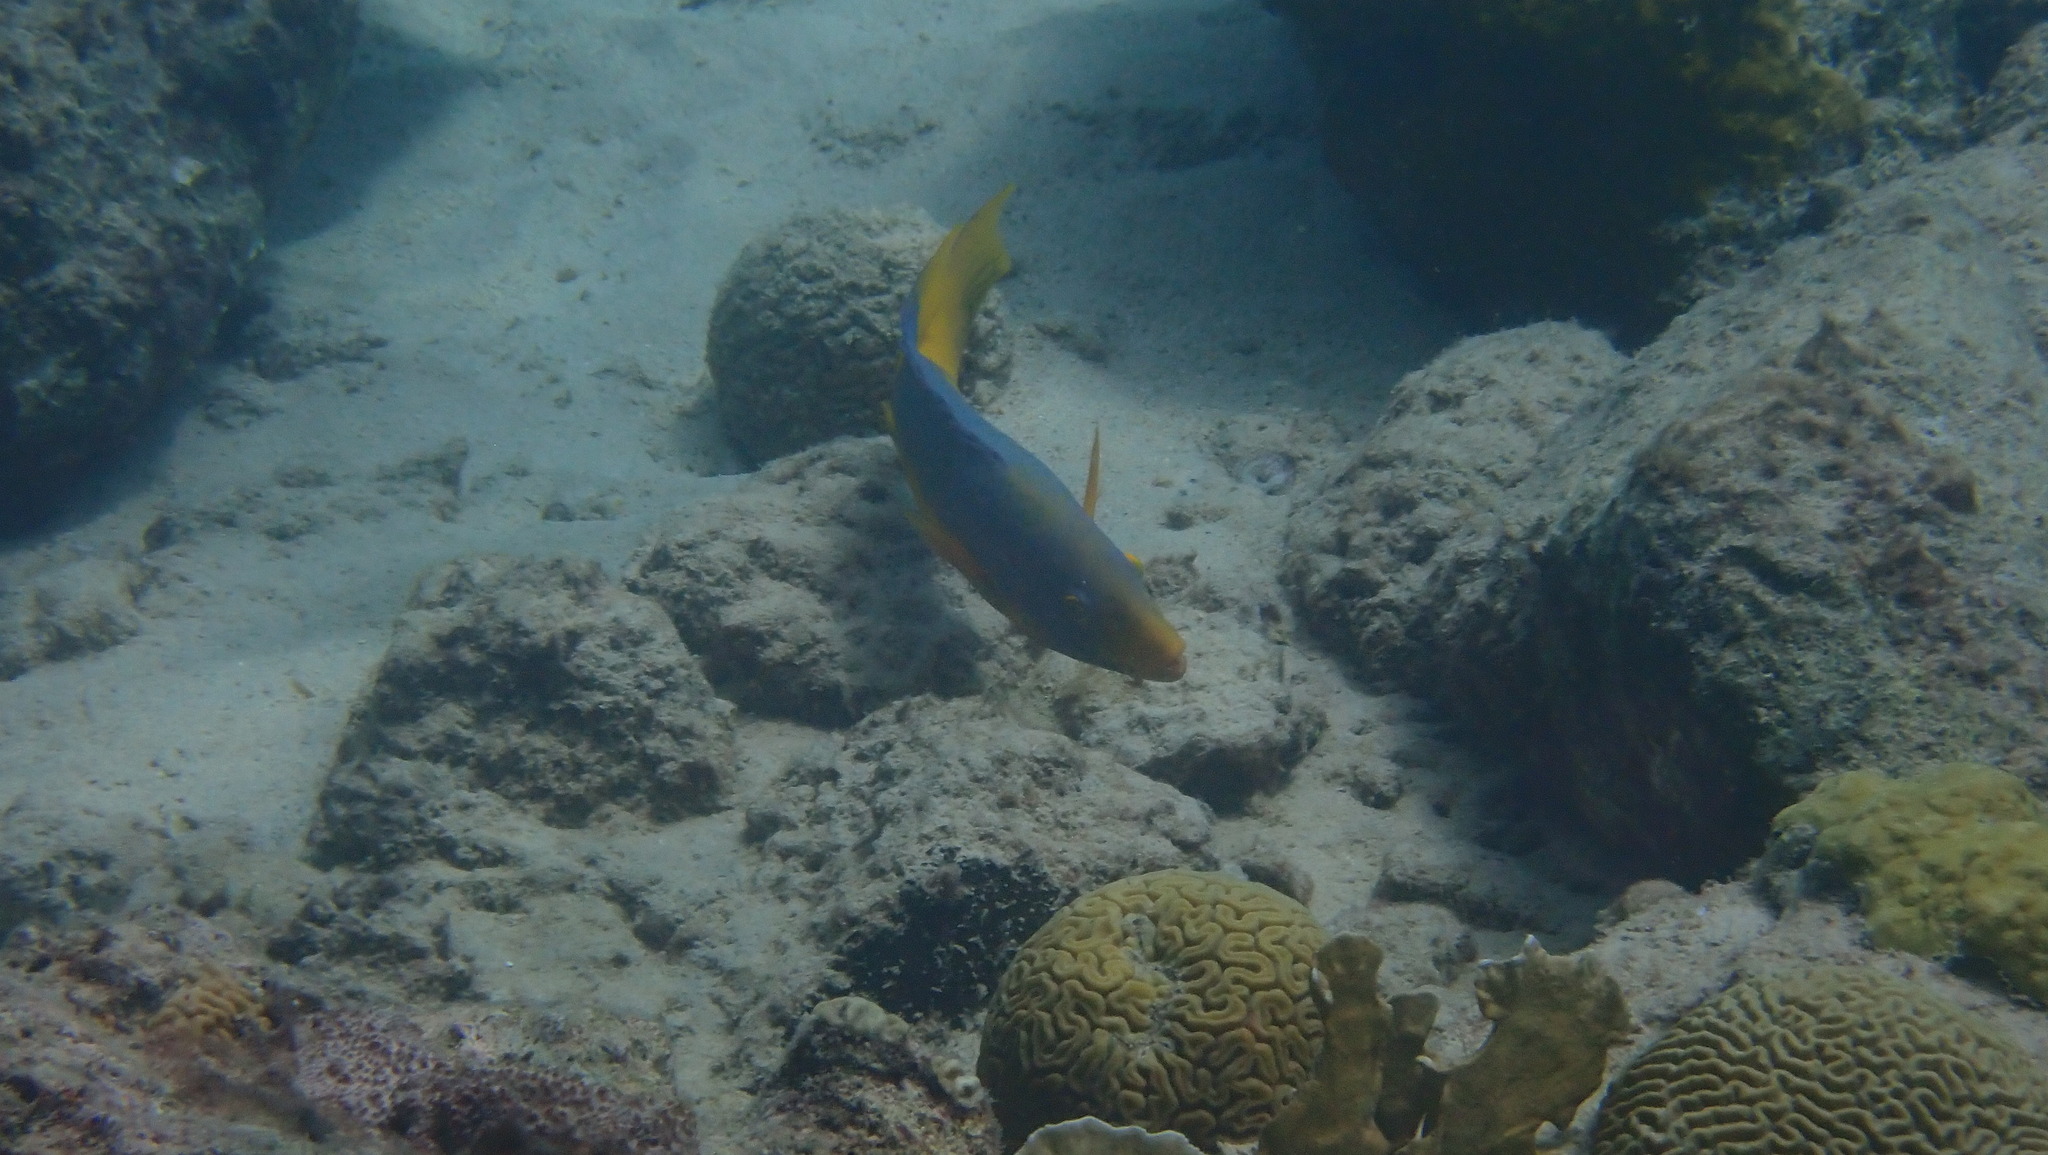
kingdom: Animalia
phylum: Chordata
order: Perciformes
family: Labridae
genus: Bodianus
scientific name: Bodianus rufus
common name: Spanish hogfish
